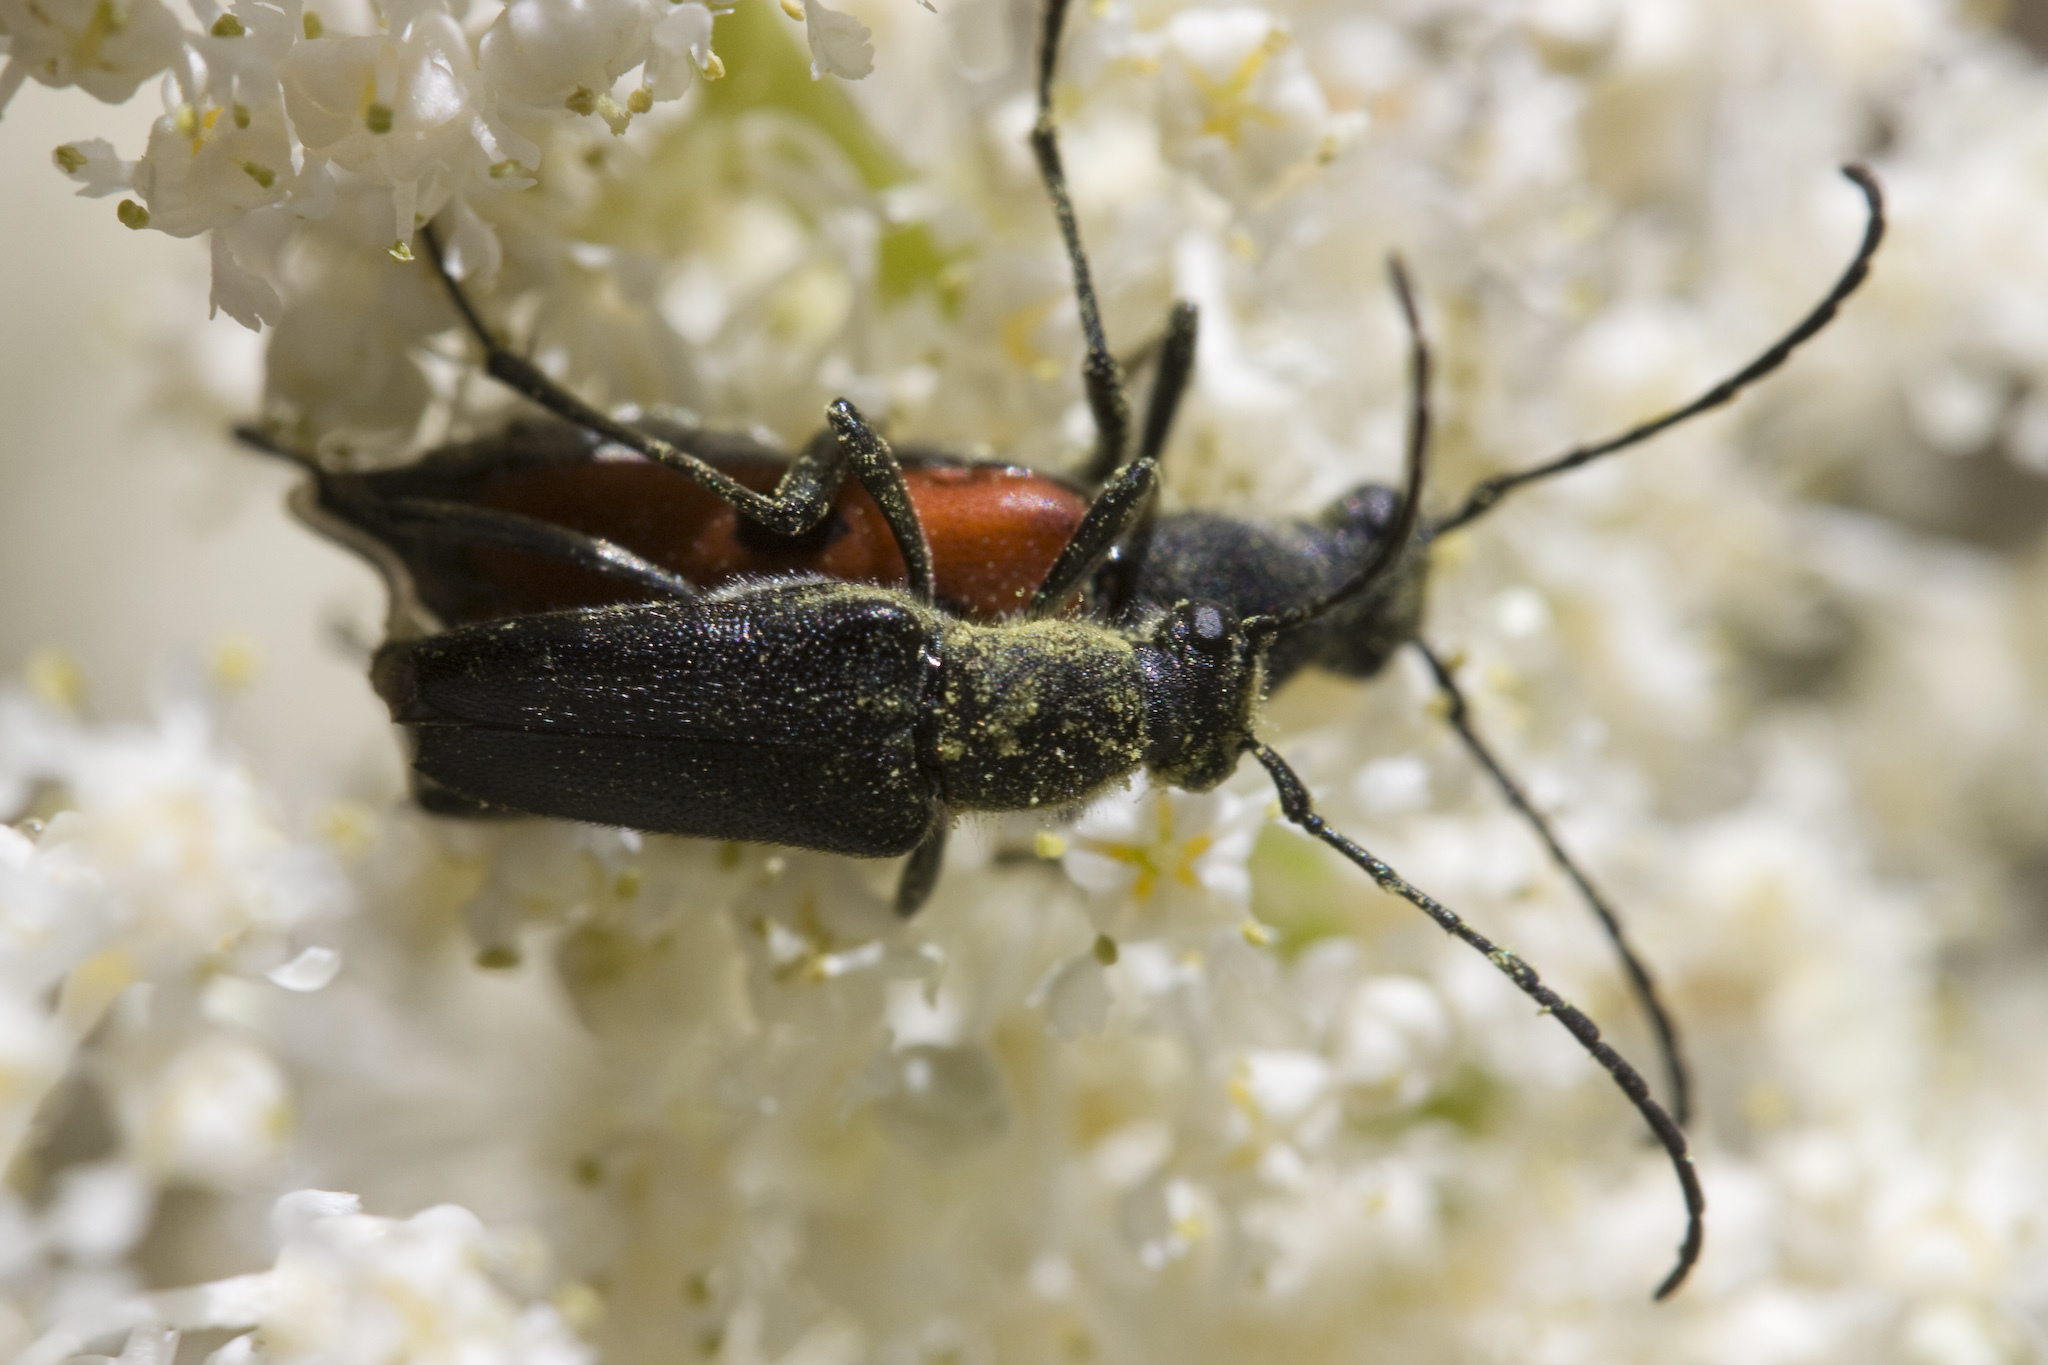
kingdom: Animalia
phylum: Arthropoda
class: Insecta
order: Coleoptera
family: Cerambycidae
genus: Anastrangalia
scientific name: Anastrangalia laetifica
